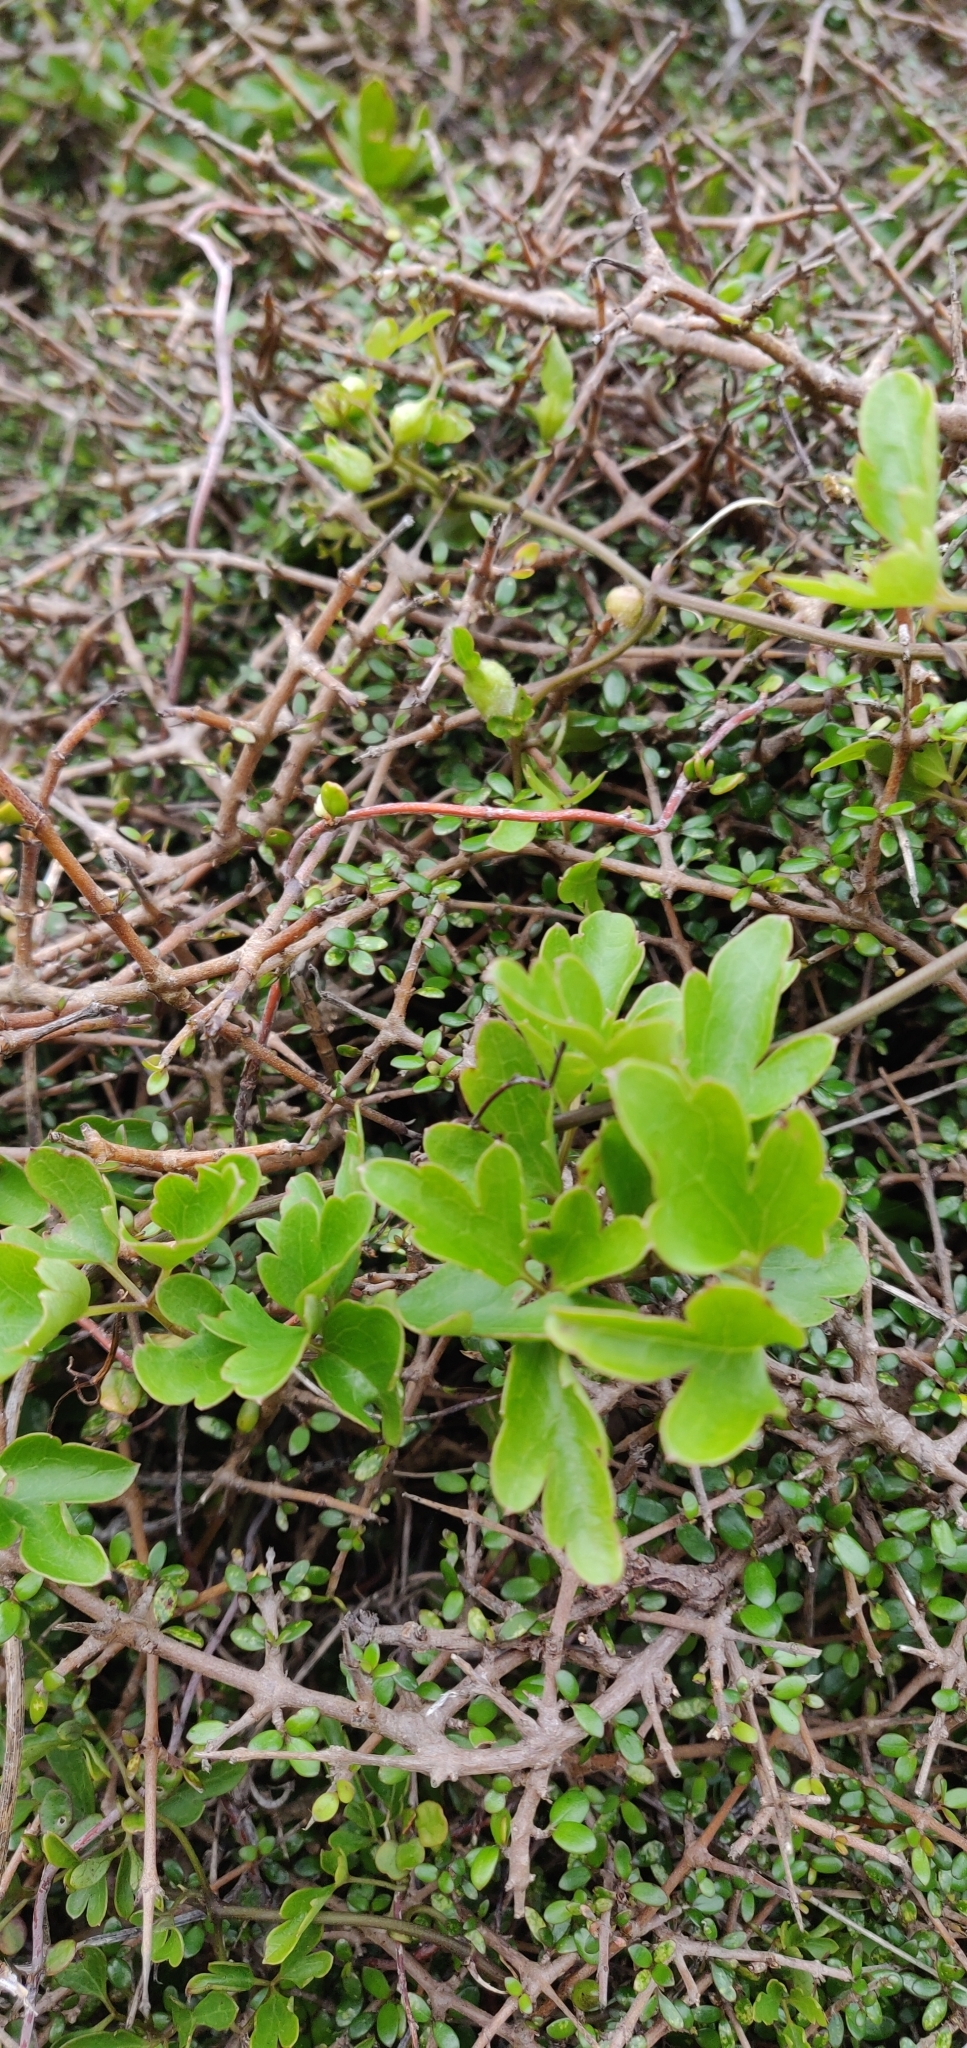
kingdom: Plantae
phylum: Tracheophyta
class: Magnoliopsida
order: Ranunculales
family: Ranunculaceae
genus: Clematis
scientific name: Clematis forsteri
